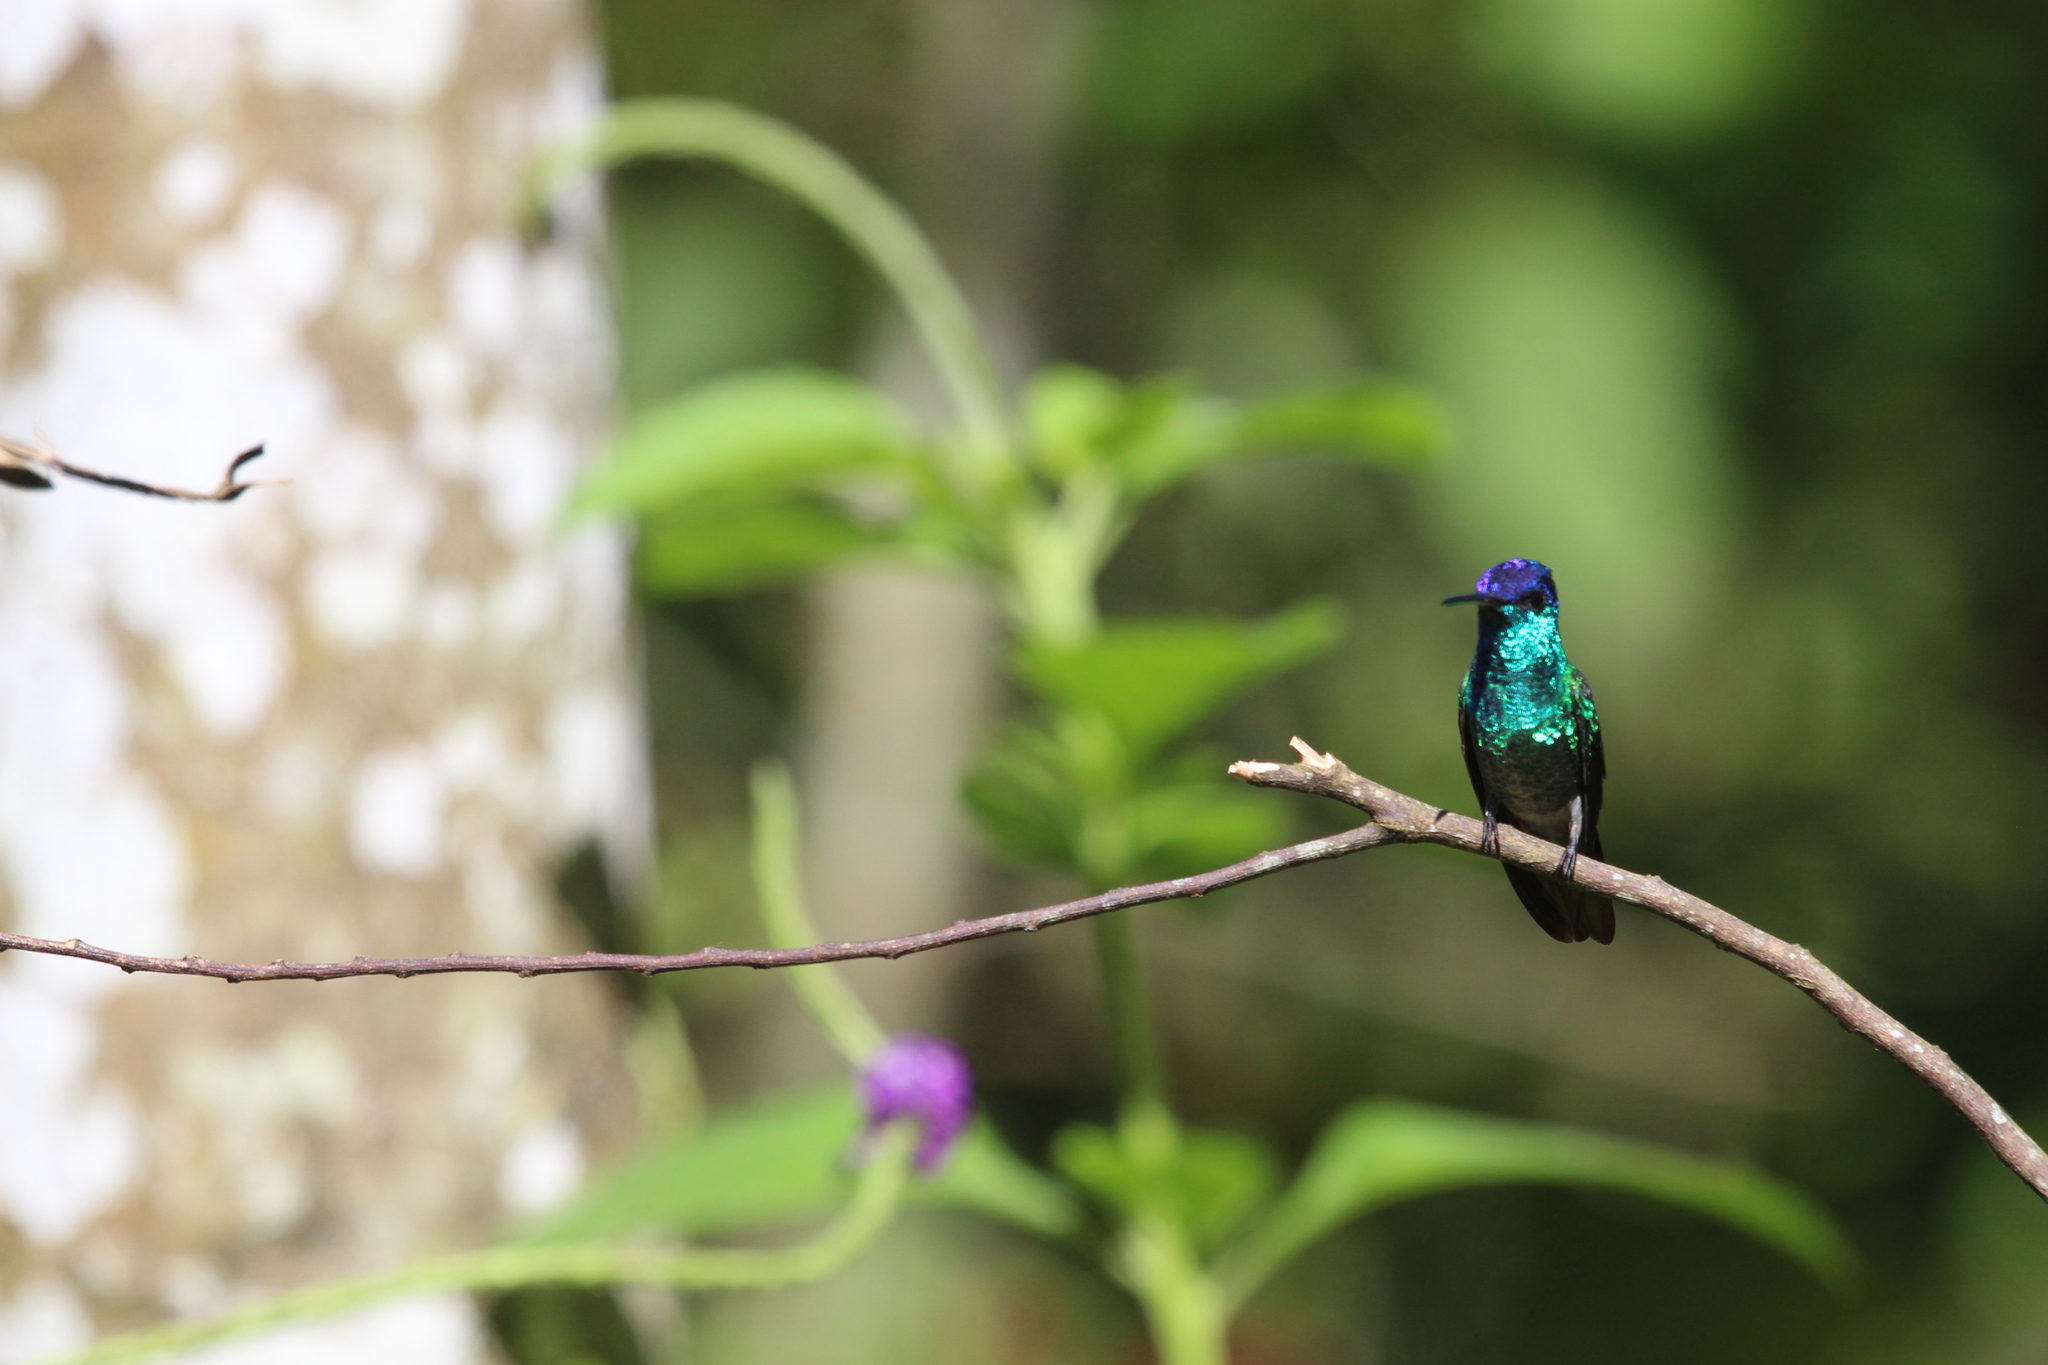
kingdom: Animalia
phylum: Chordata
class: Aves
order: Apodiformes
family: Trochilidae
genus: Chrysuronia
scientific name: Chrysuronia oenone
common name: Golden-tailed sapphire
